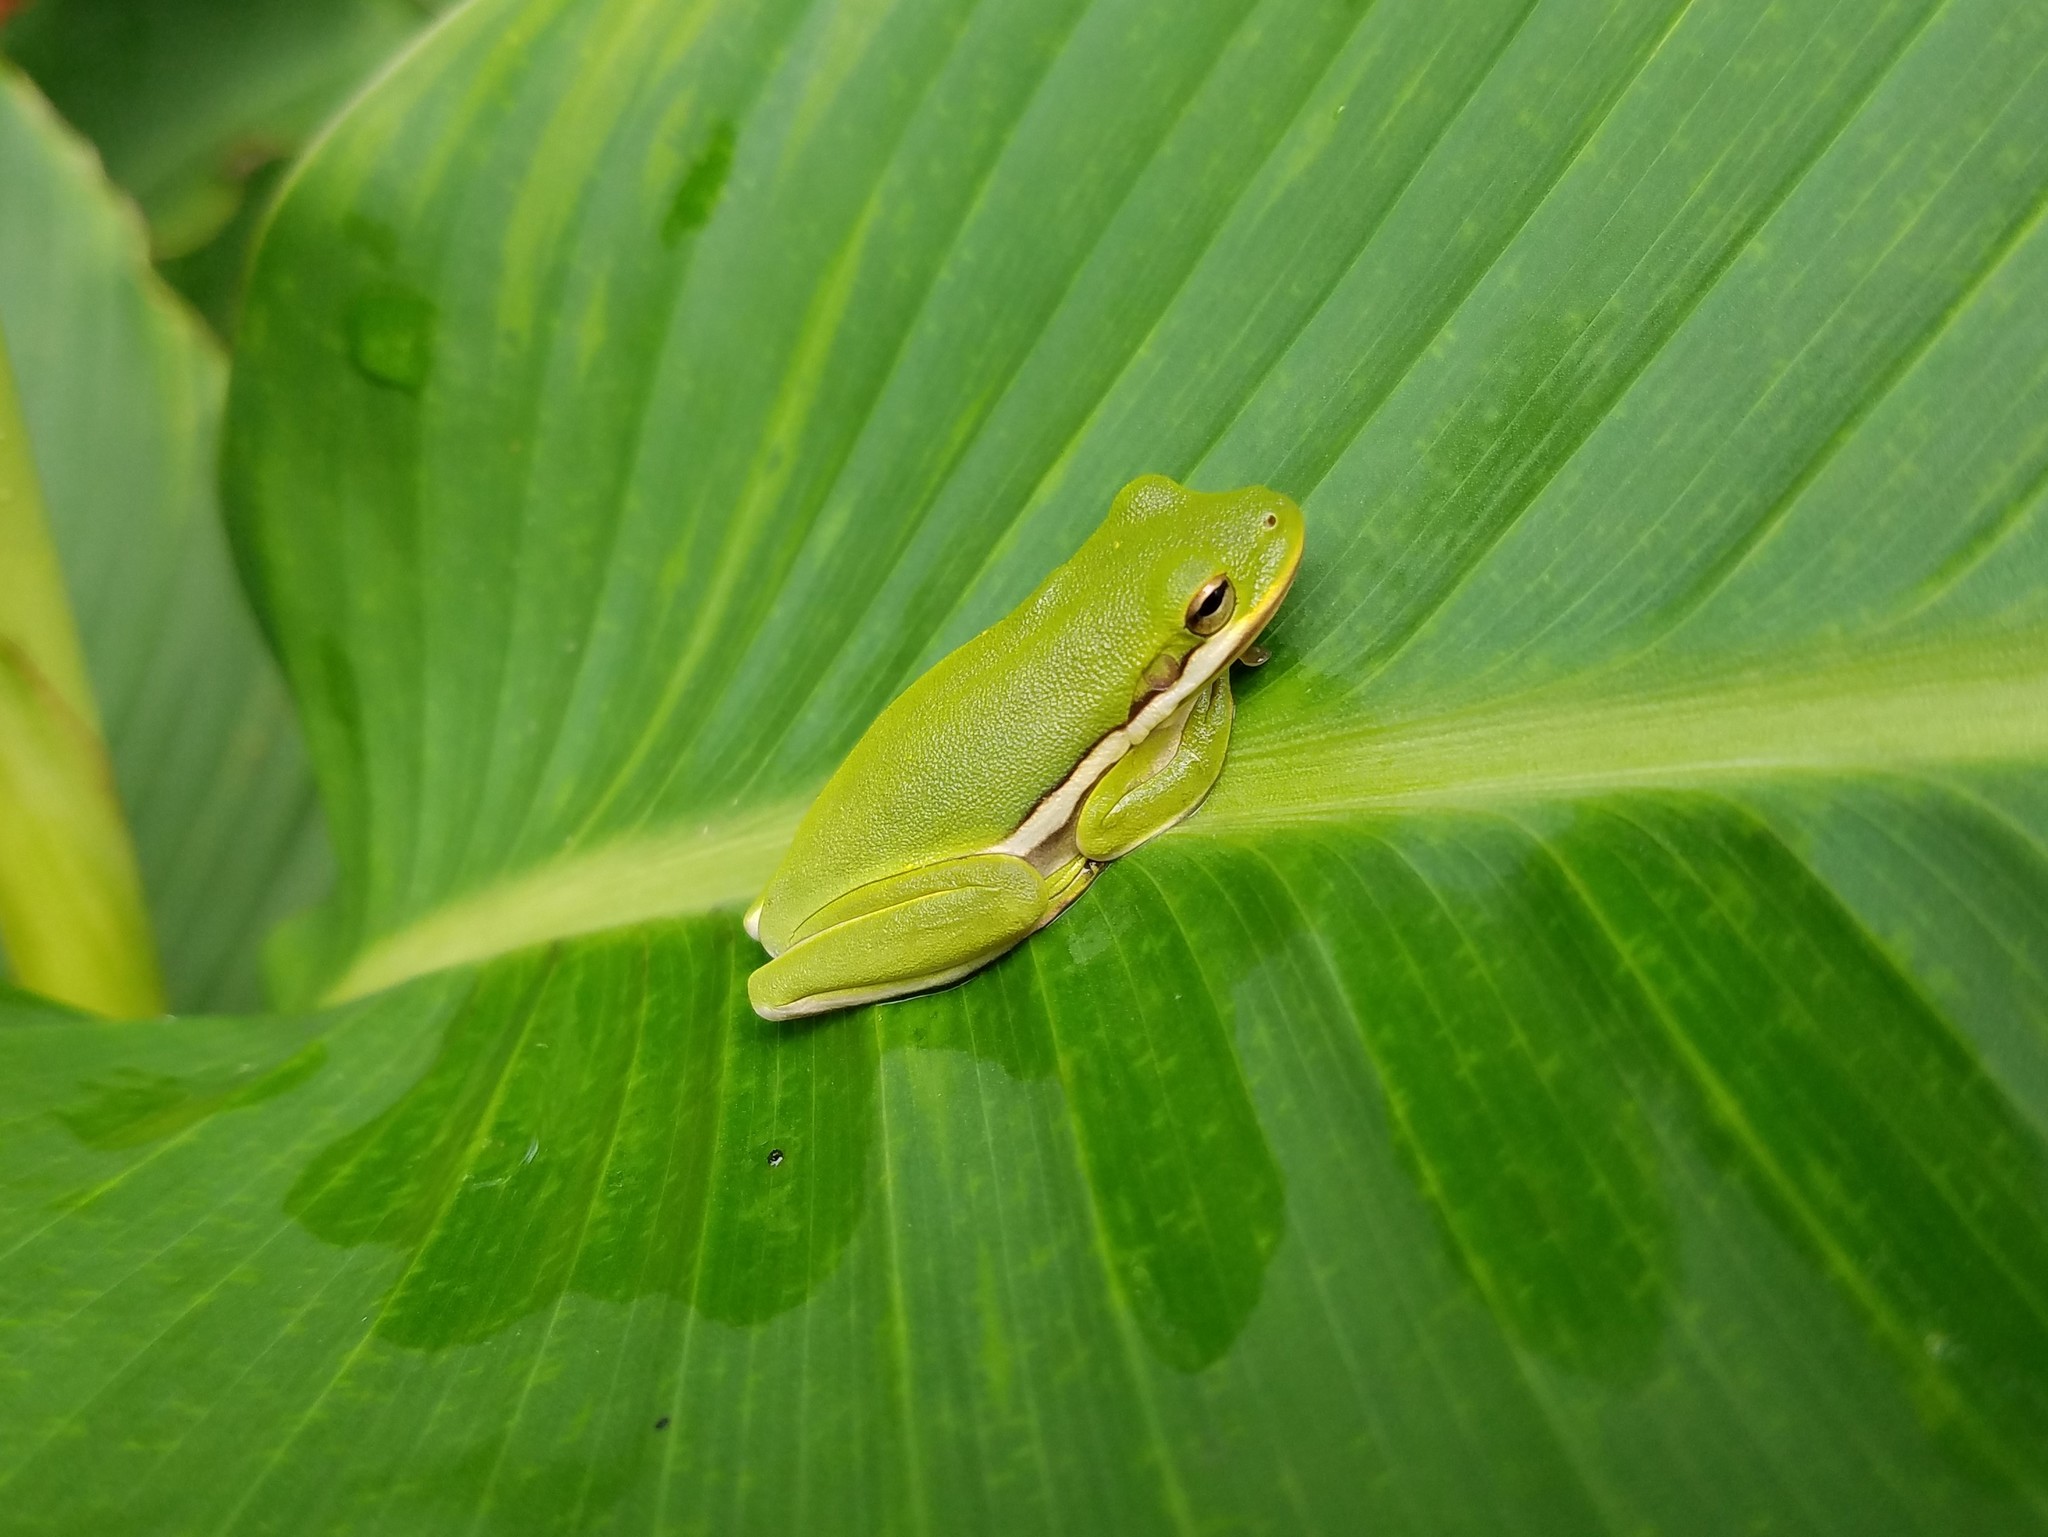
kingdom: Animalia
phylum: Chordata
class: Amphibia
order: Anura
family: Hylidae
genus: Dryophytes
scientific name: Dryophytes cinereus
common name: Green treefrog
